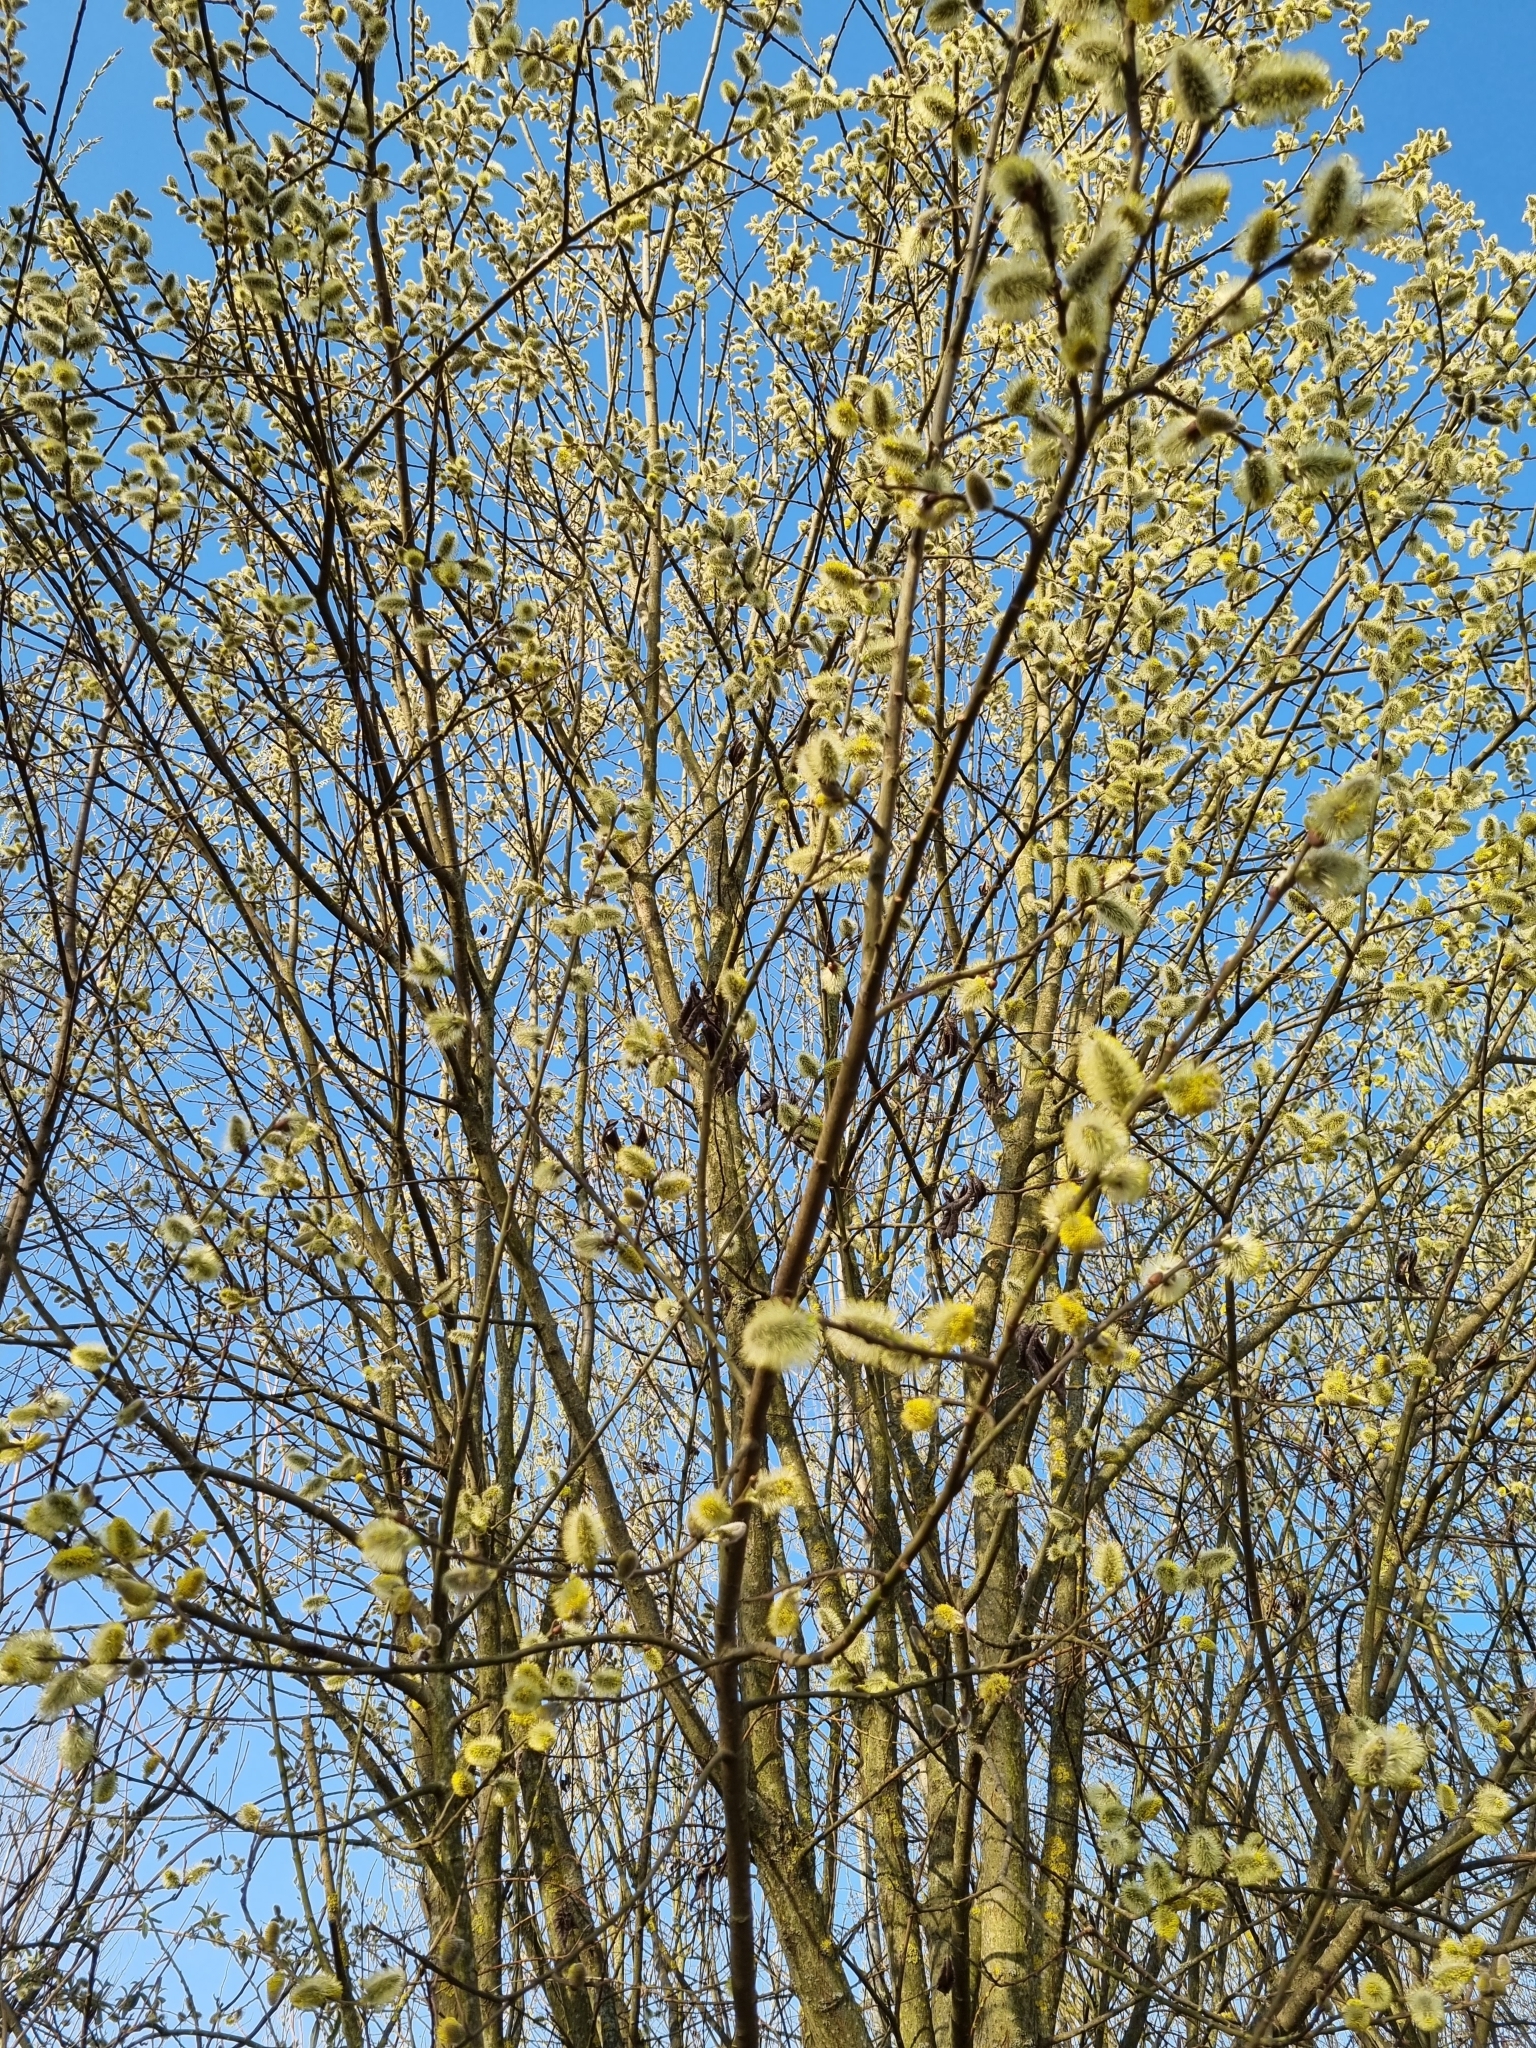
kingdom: Plantae
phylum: Tracheophyta
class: Magnoliopsida
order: Malpighiales
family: Salicaceae
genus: Salix
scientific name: Salix caprea
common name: Goat willow
